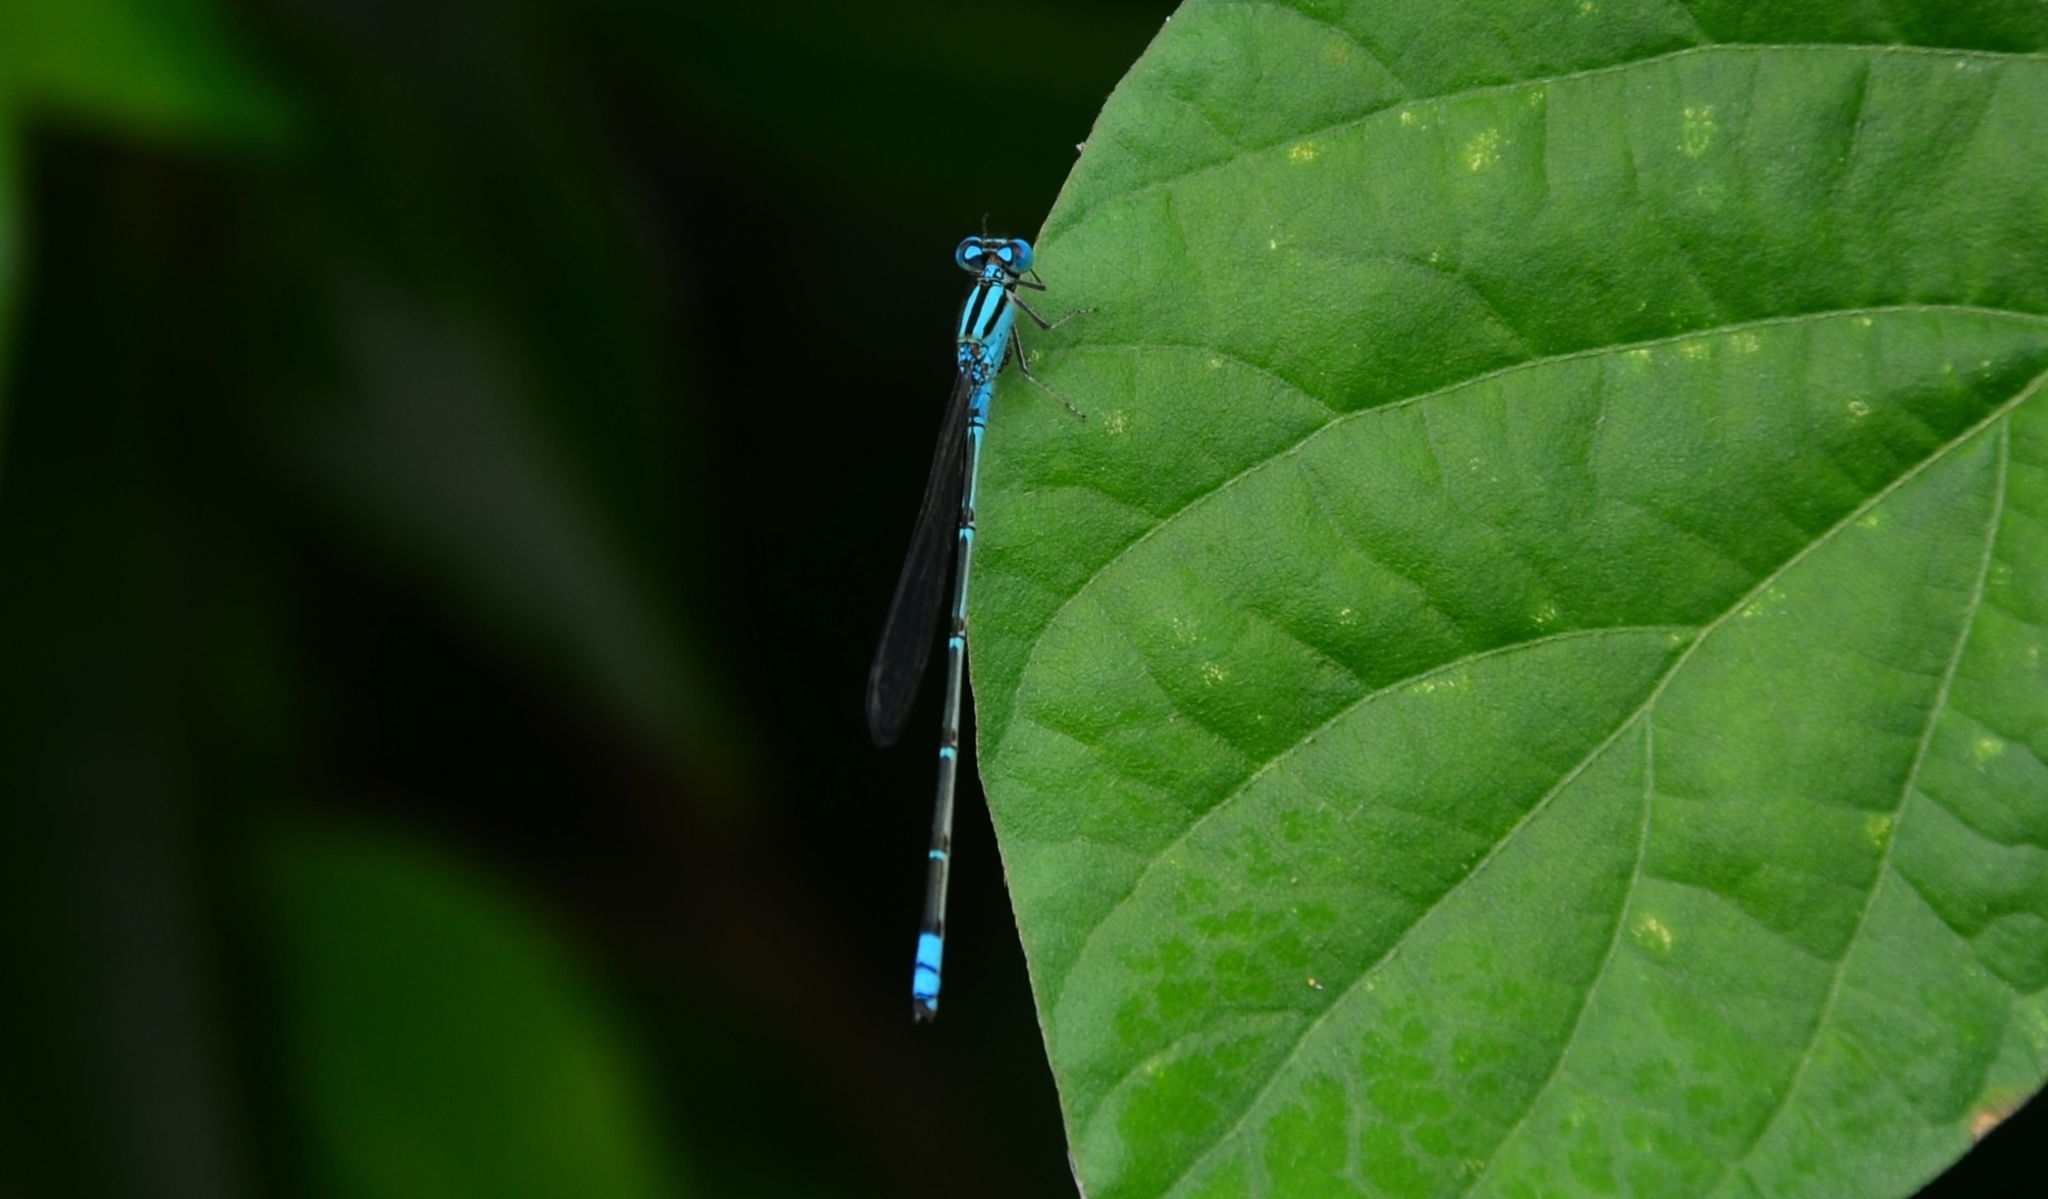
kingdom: Animalia
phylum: Arthropoda
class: Insecta
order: Odonata
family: Coenagrionidae
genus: Pseudagrion
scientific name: Pseudagrion microcephalum
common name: Blue riverdamsel
